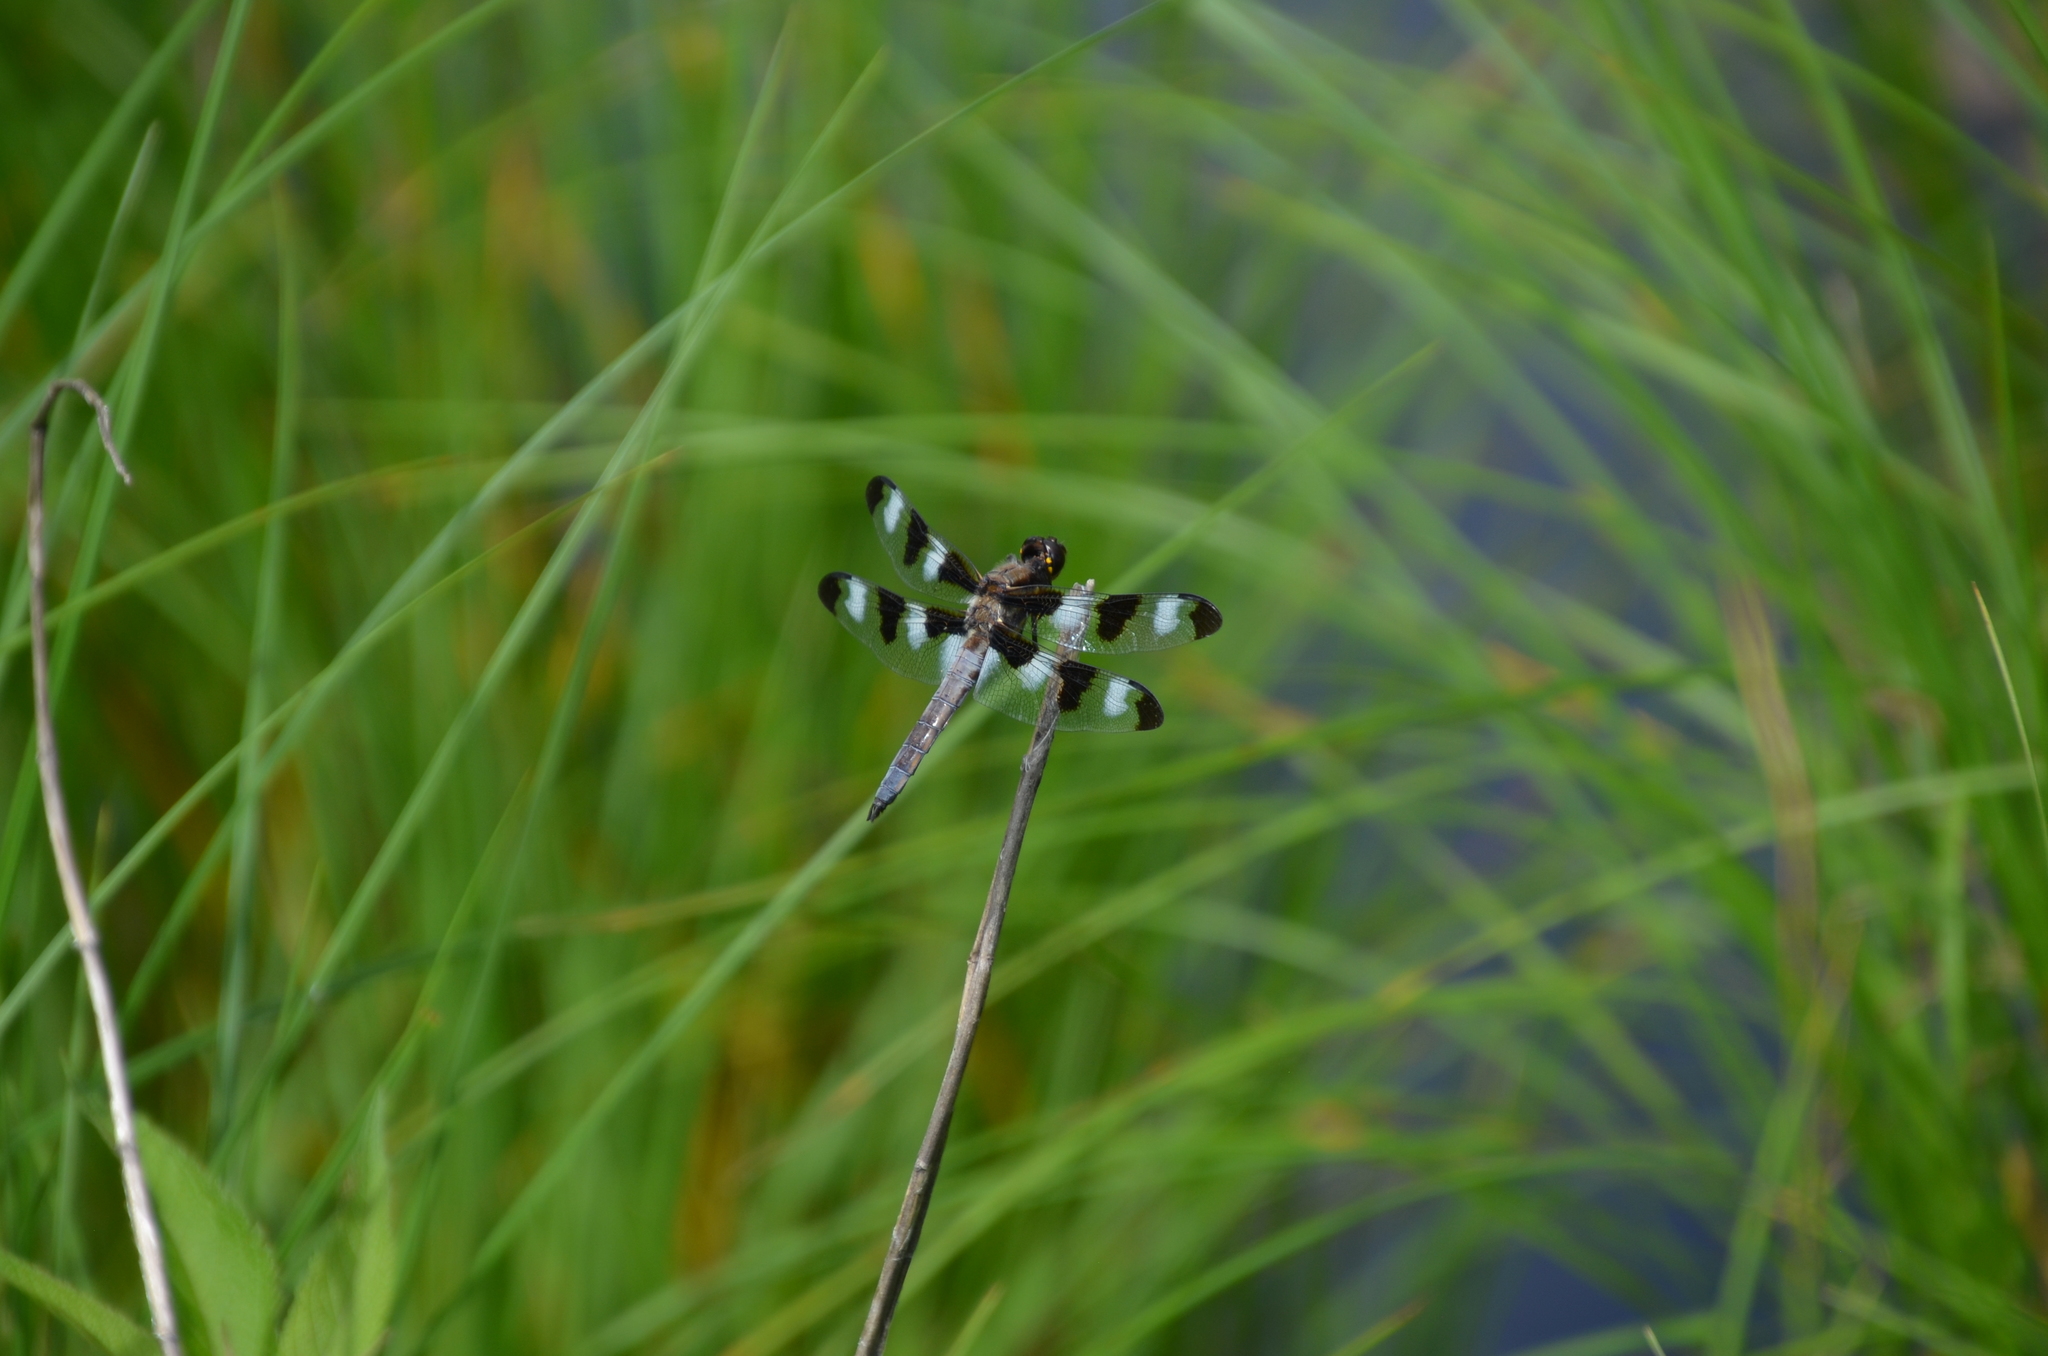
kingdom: Animalia
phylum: Arthropoda
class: Insecta
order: Odonata
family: Libellulidae
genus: Libellula
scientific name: Libellula pulchella
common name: Twelve-spotted skimmer
